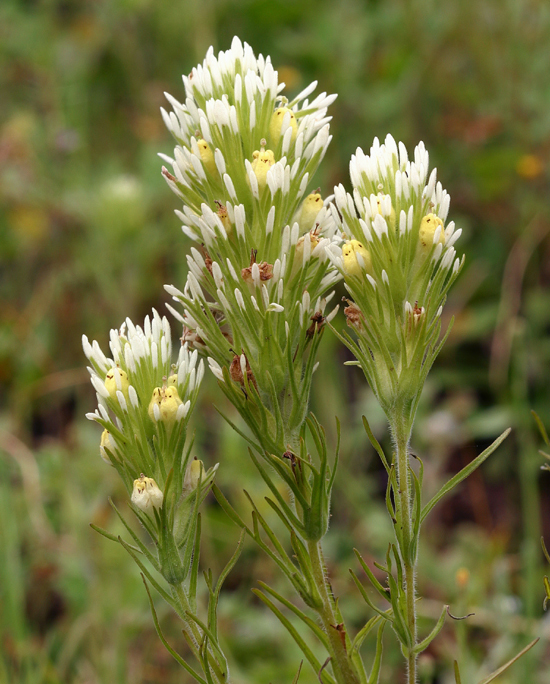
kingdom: Plantae
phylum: Tracheophyta
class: Magnoliopsida
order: Lamiales
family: Orobanchaceae
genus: Castilleja
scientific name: Castilleja lineariloba
